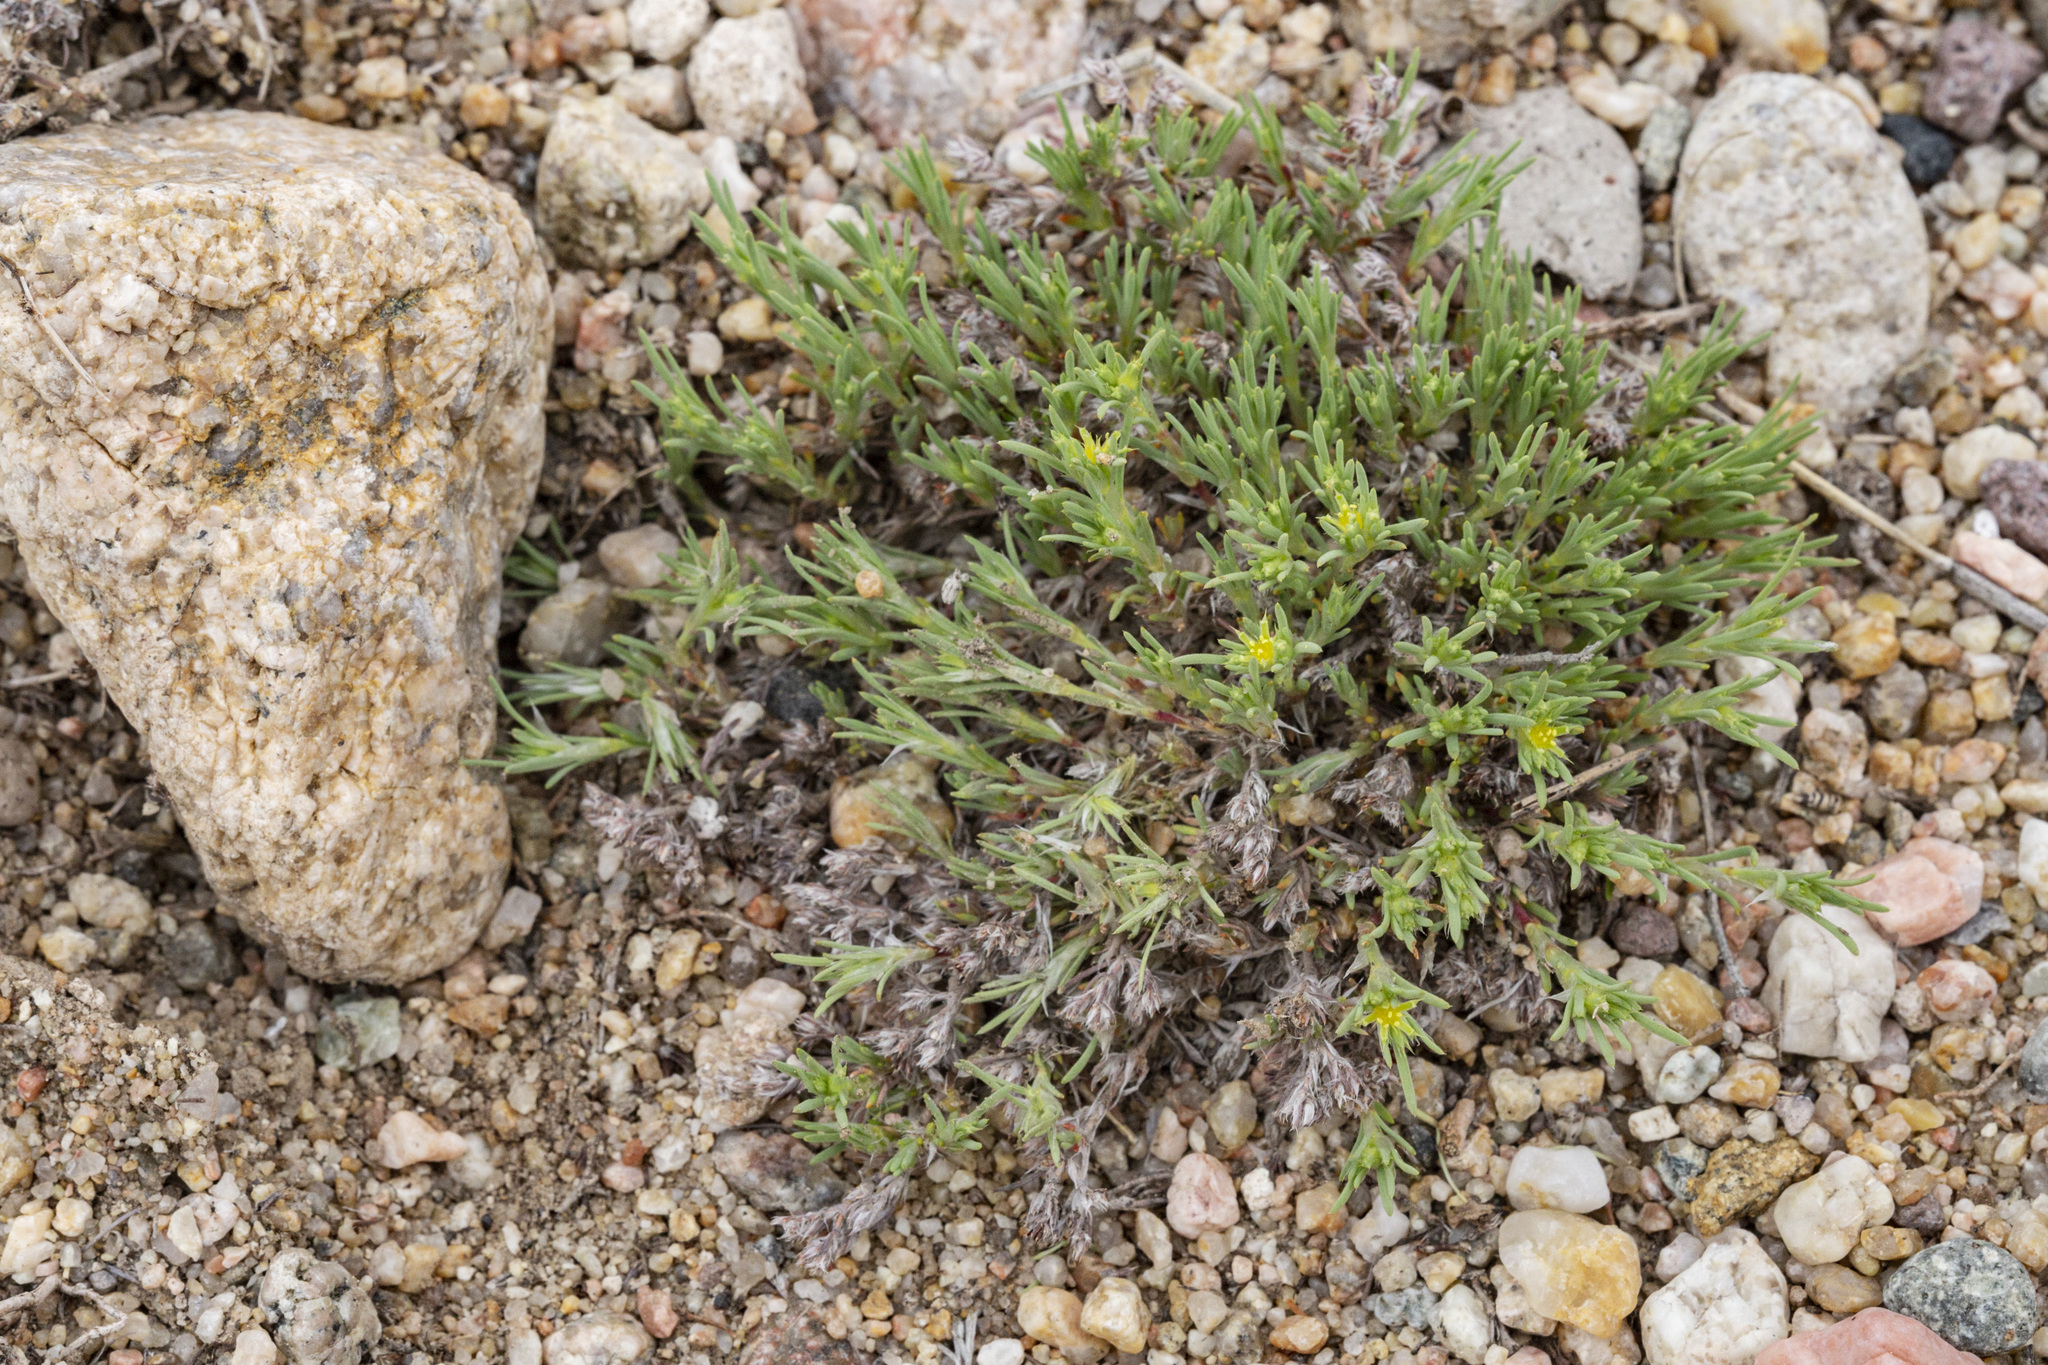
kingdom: Plantae
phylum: Tracheophyta
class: Magnoliopsida
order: Caryophyllales
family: Caryophyllaceae
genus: Paronychia
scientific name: Paronychia depressa
